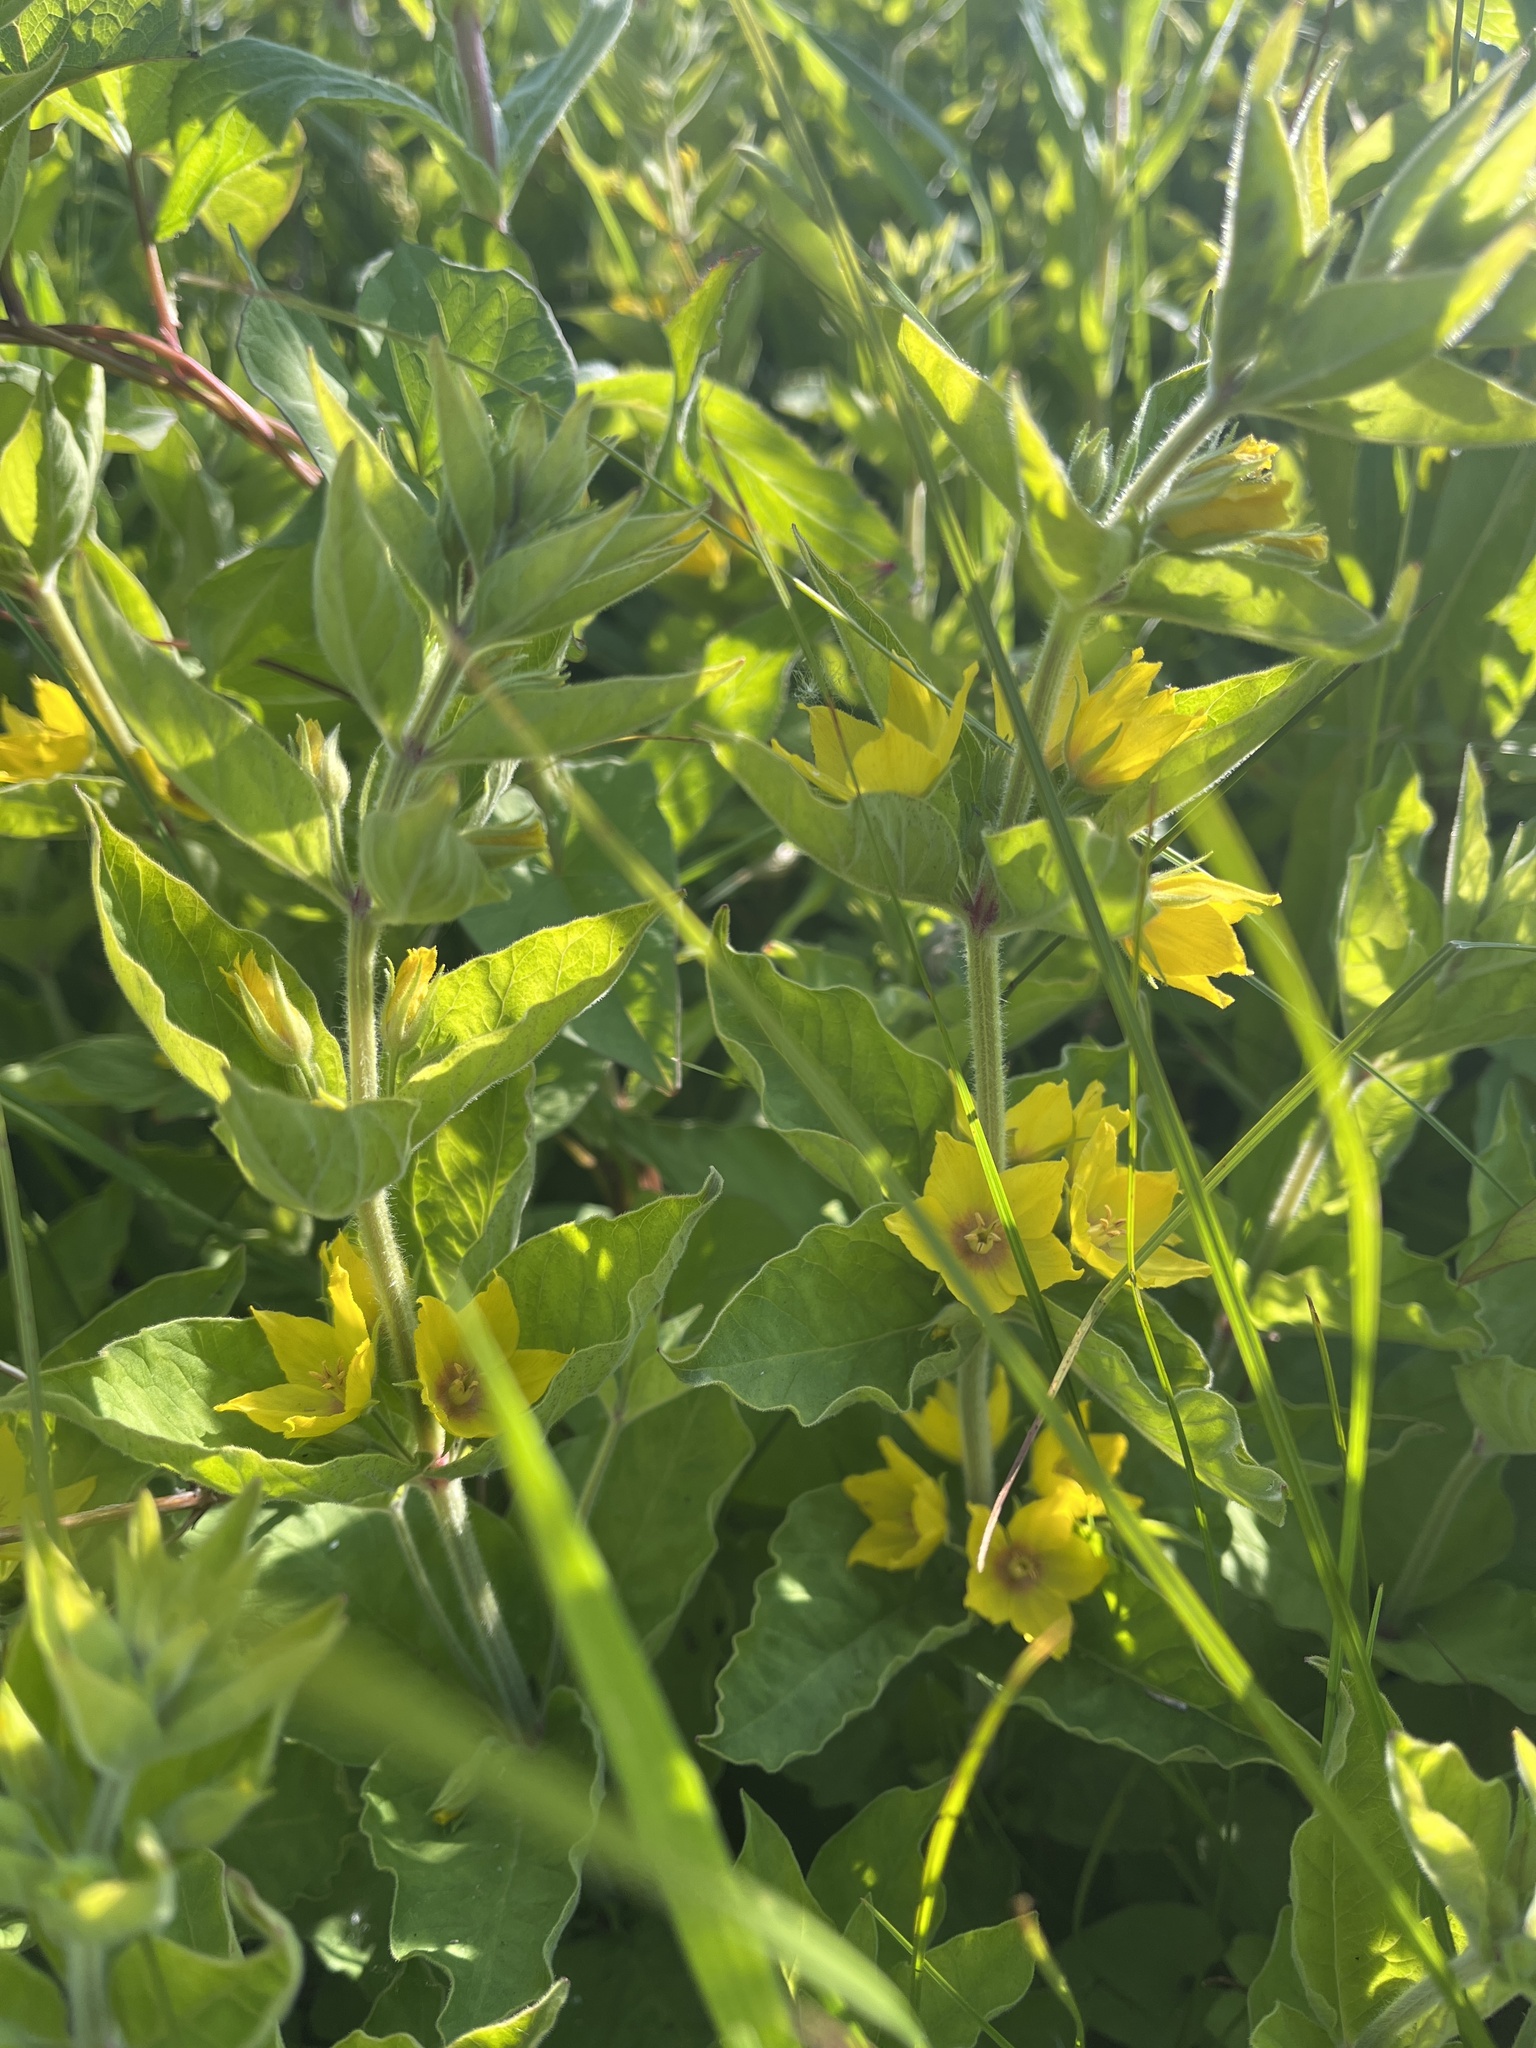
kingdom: Plantae
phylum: Tracheophyta
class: Magnoliopsida
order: Ericales
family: Primulaceae
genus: Lysimachia
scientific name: Lysimachia punctata
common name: Dotted loosestrife
